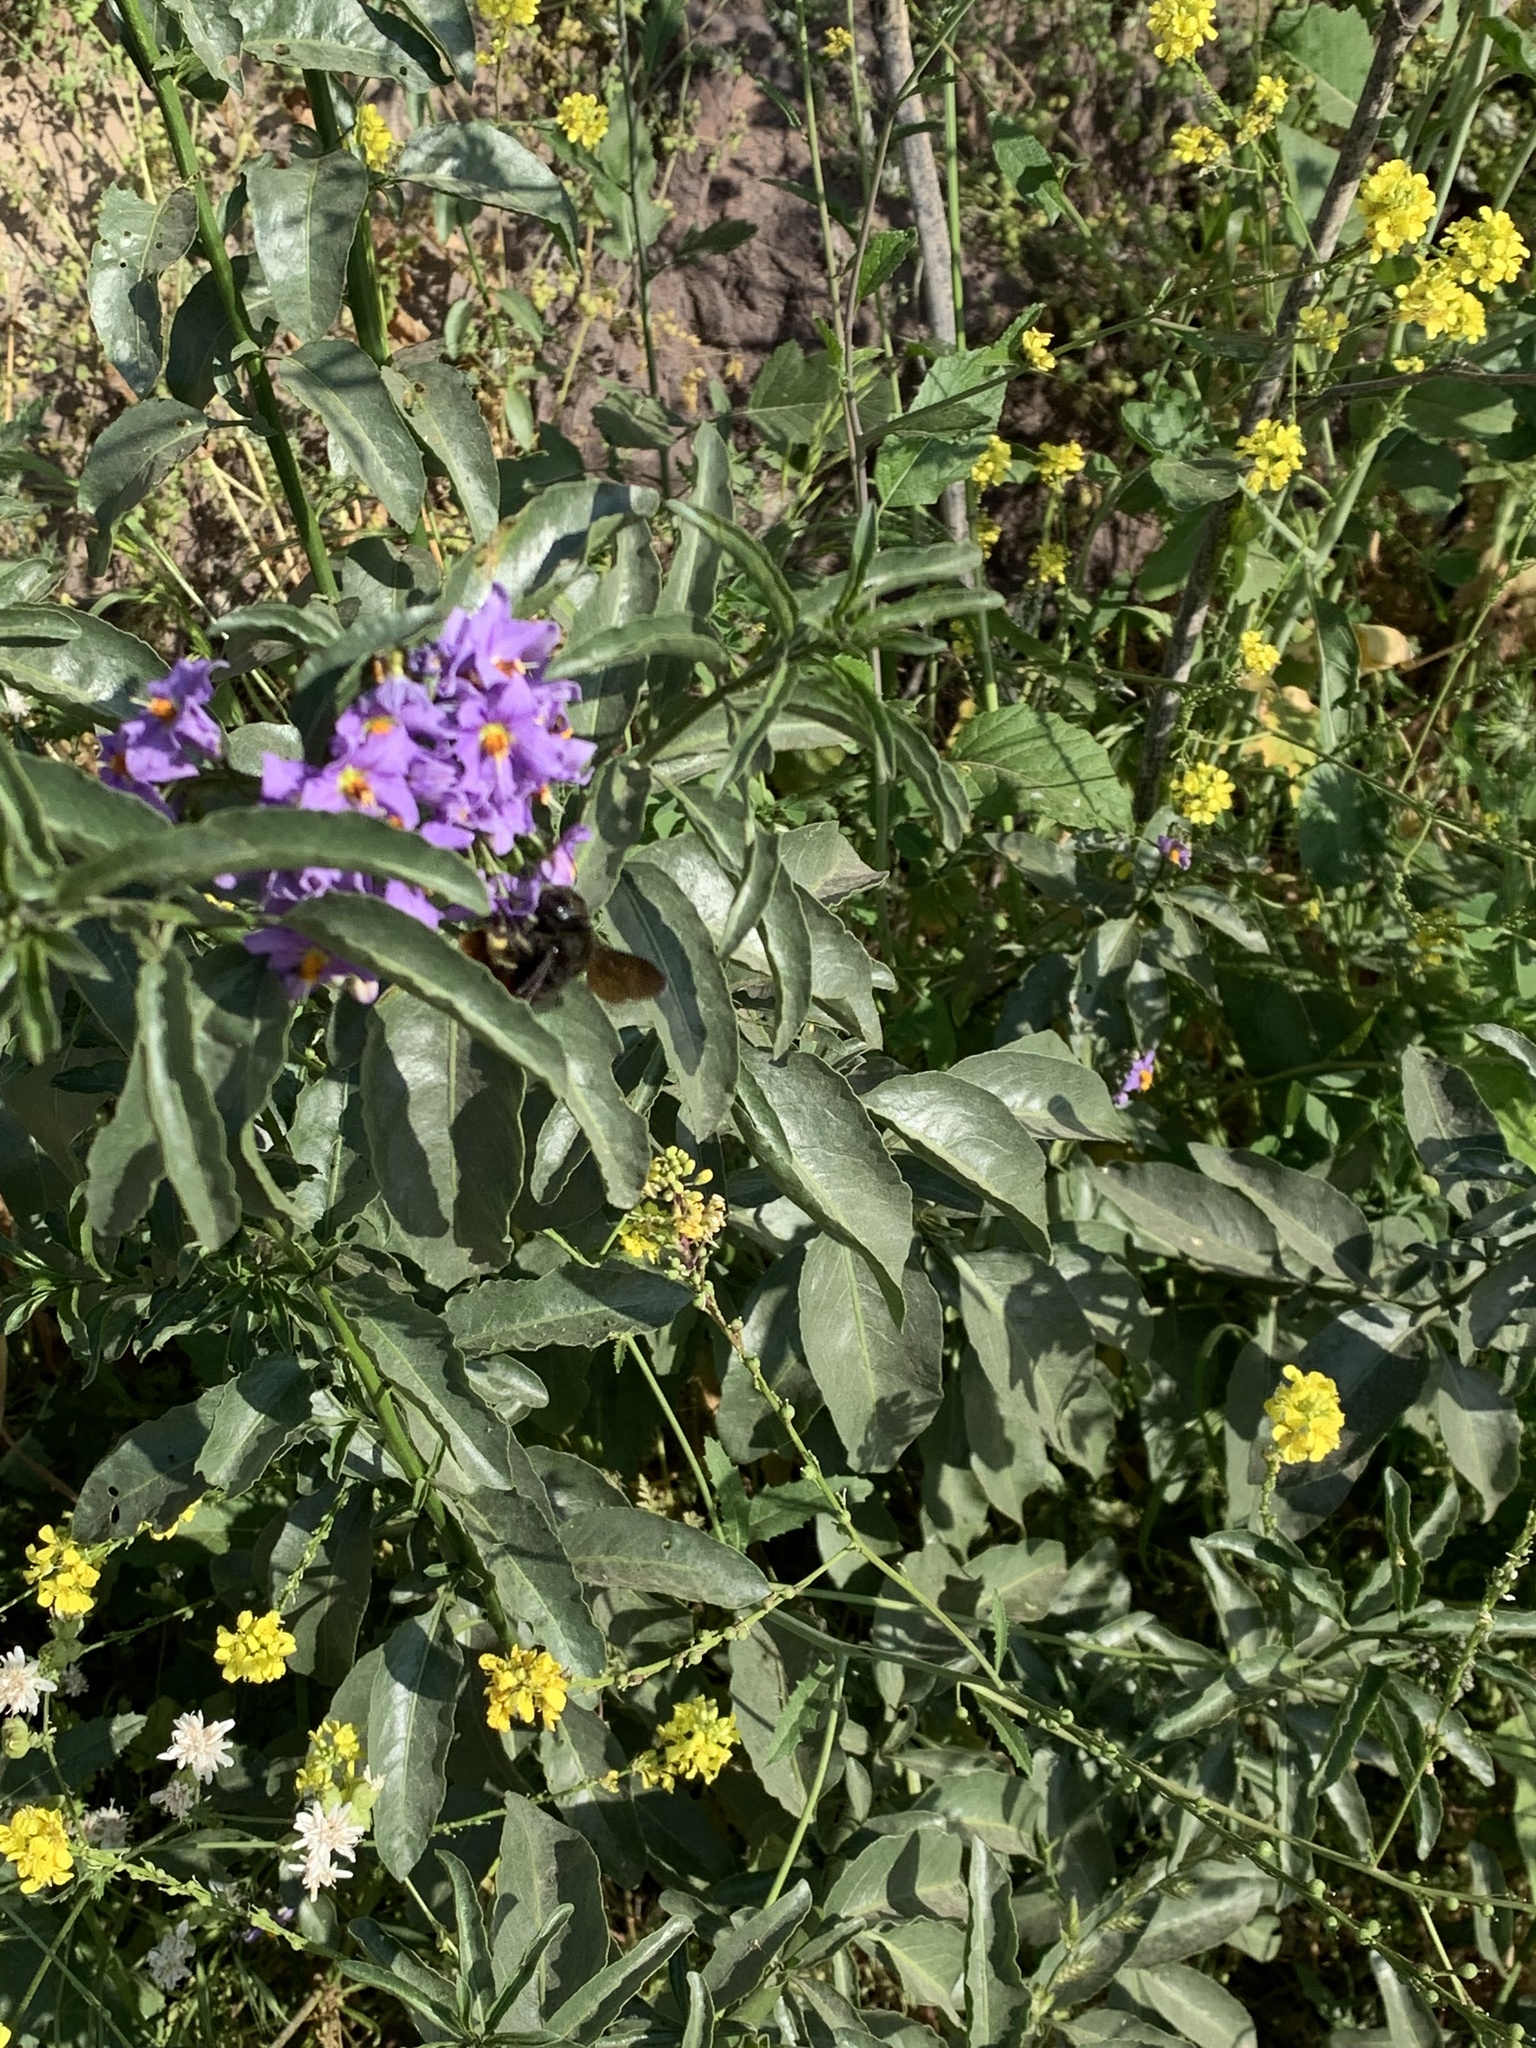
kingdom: Plantae
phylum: Tracheophyta
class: Magnoliopsida
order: Solanales
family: Solanaceae
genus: Solanum
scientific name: Solanum crispum
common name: Chilean nightshade
